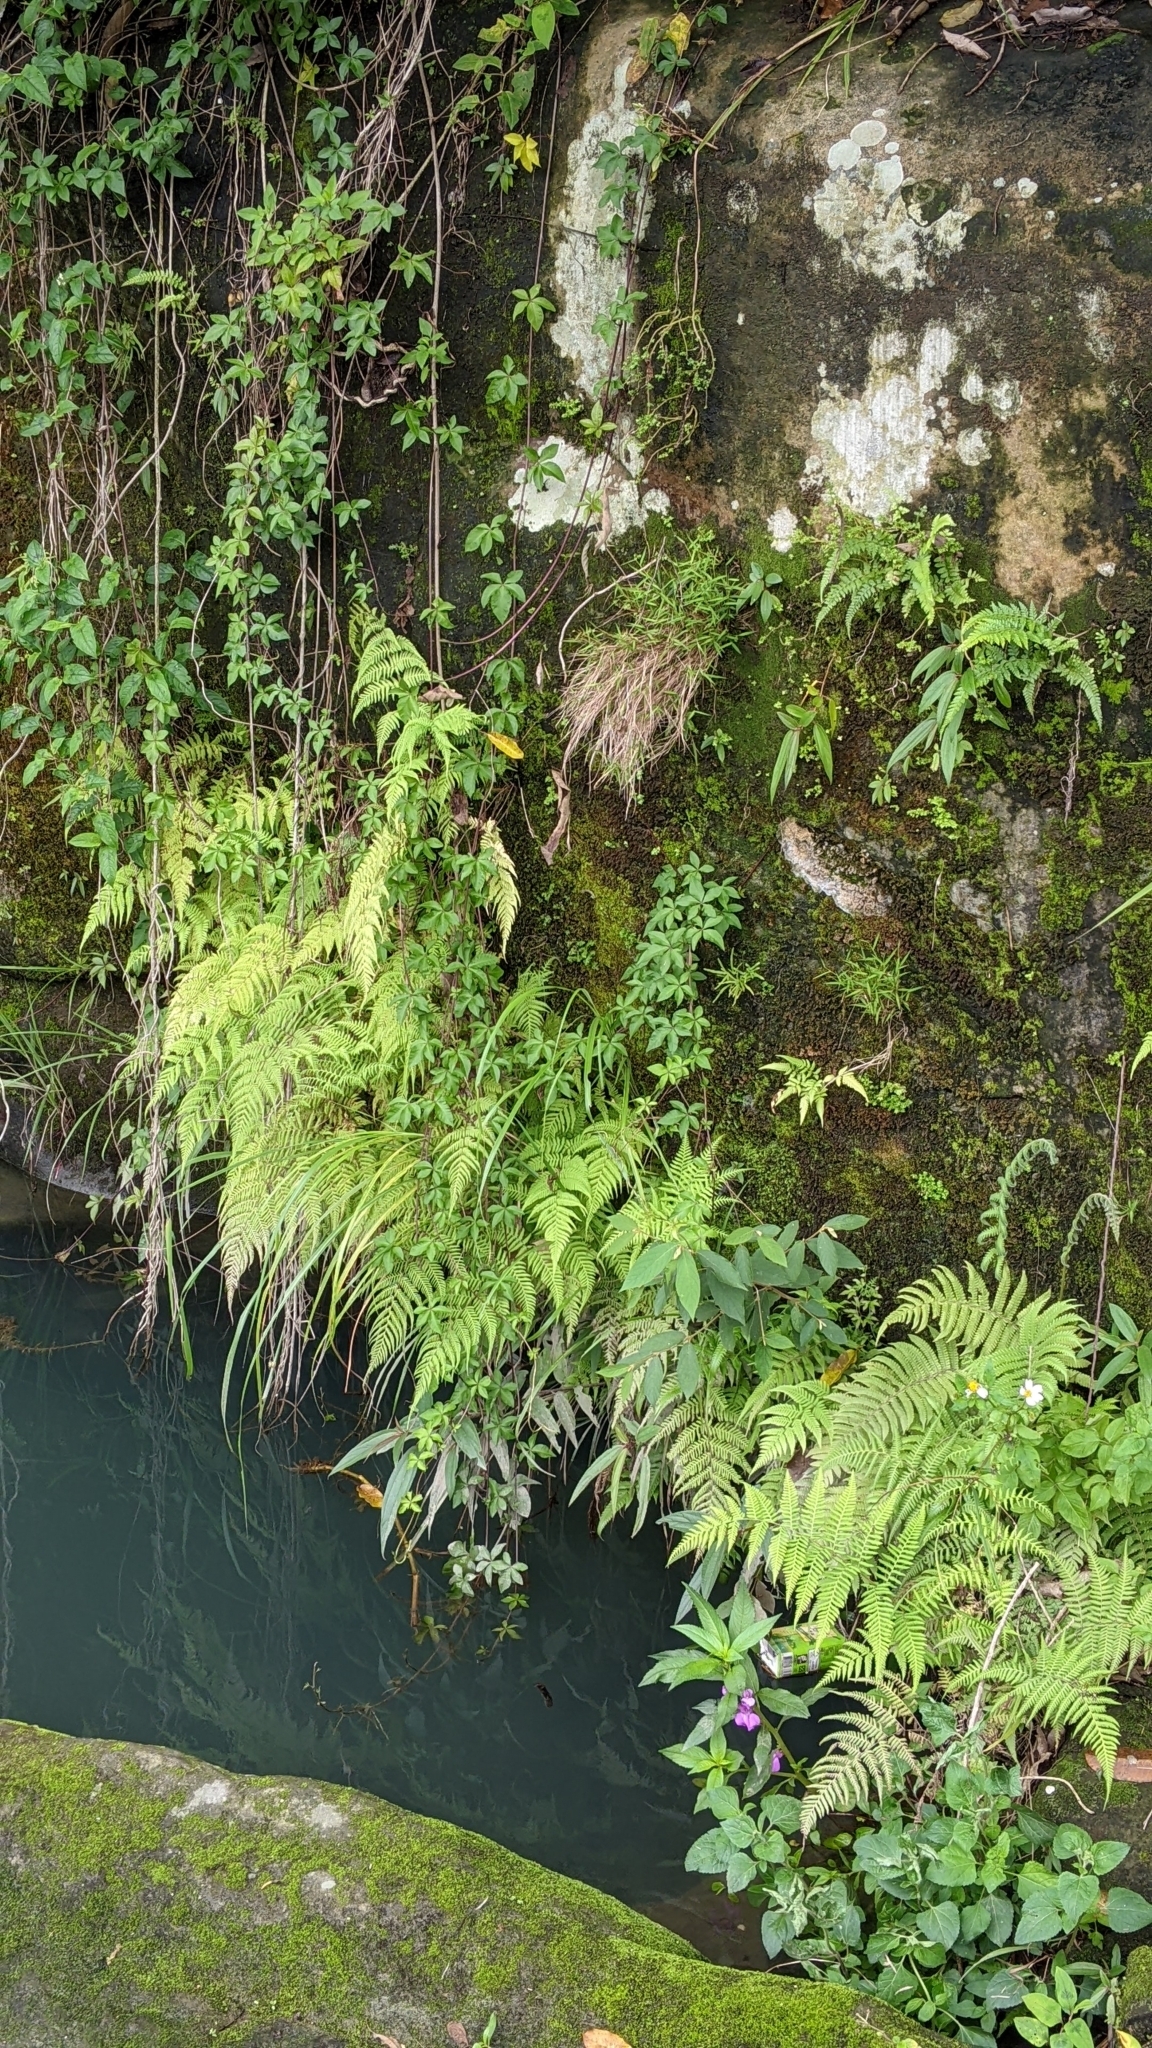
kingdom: Plantae
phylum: Tracheophyta
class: Polypodiopsida
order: Polypodiales
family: Thelypteridaceae
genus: Macrothelypteris
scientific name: Macrothelypteris torresiana
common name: Swordfern
